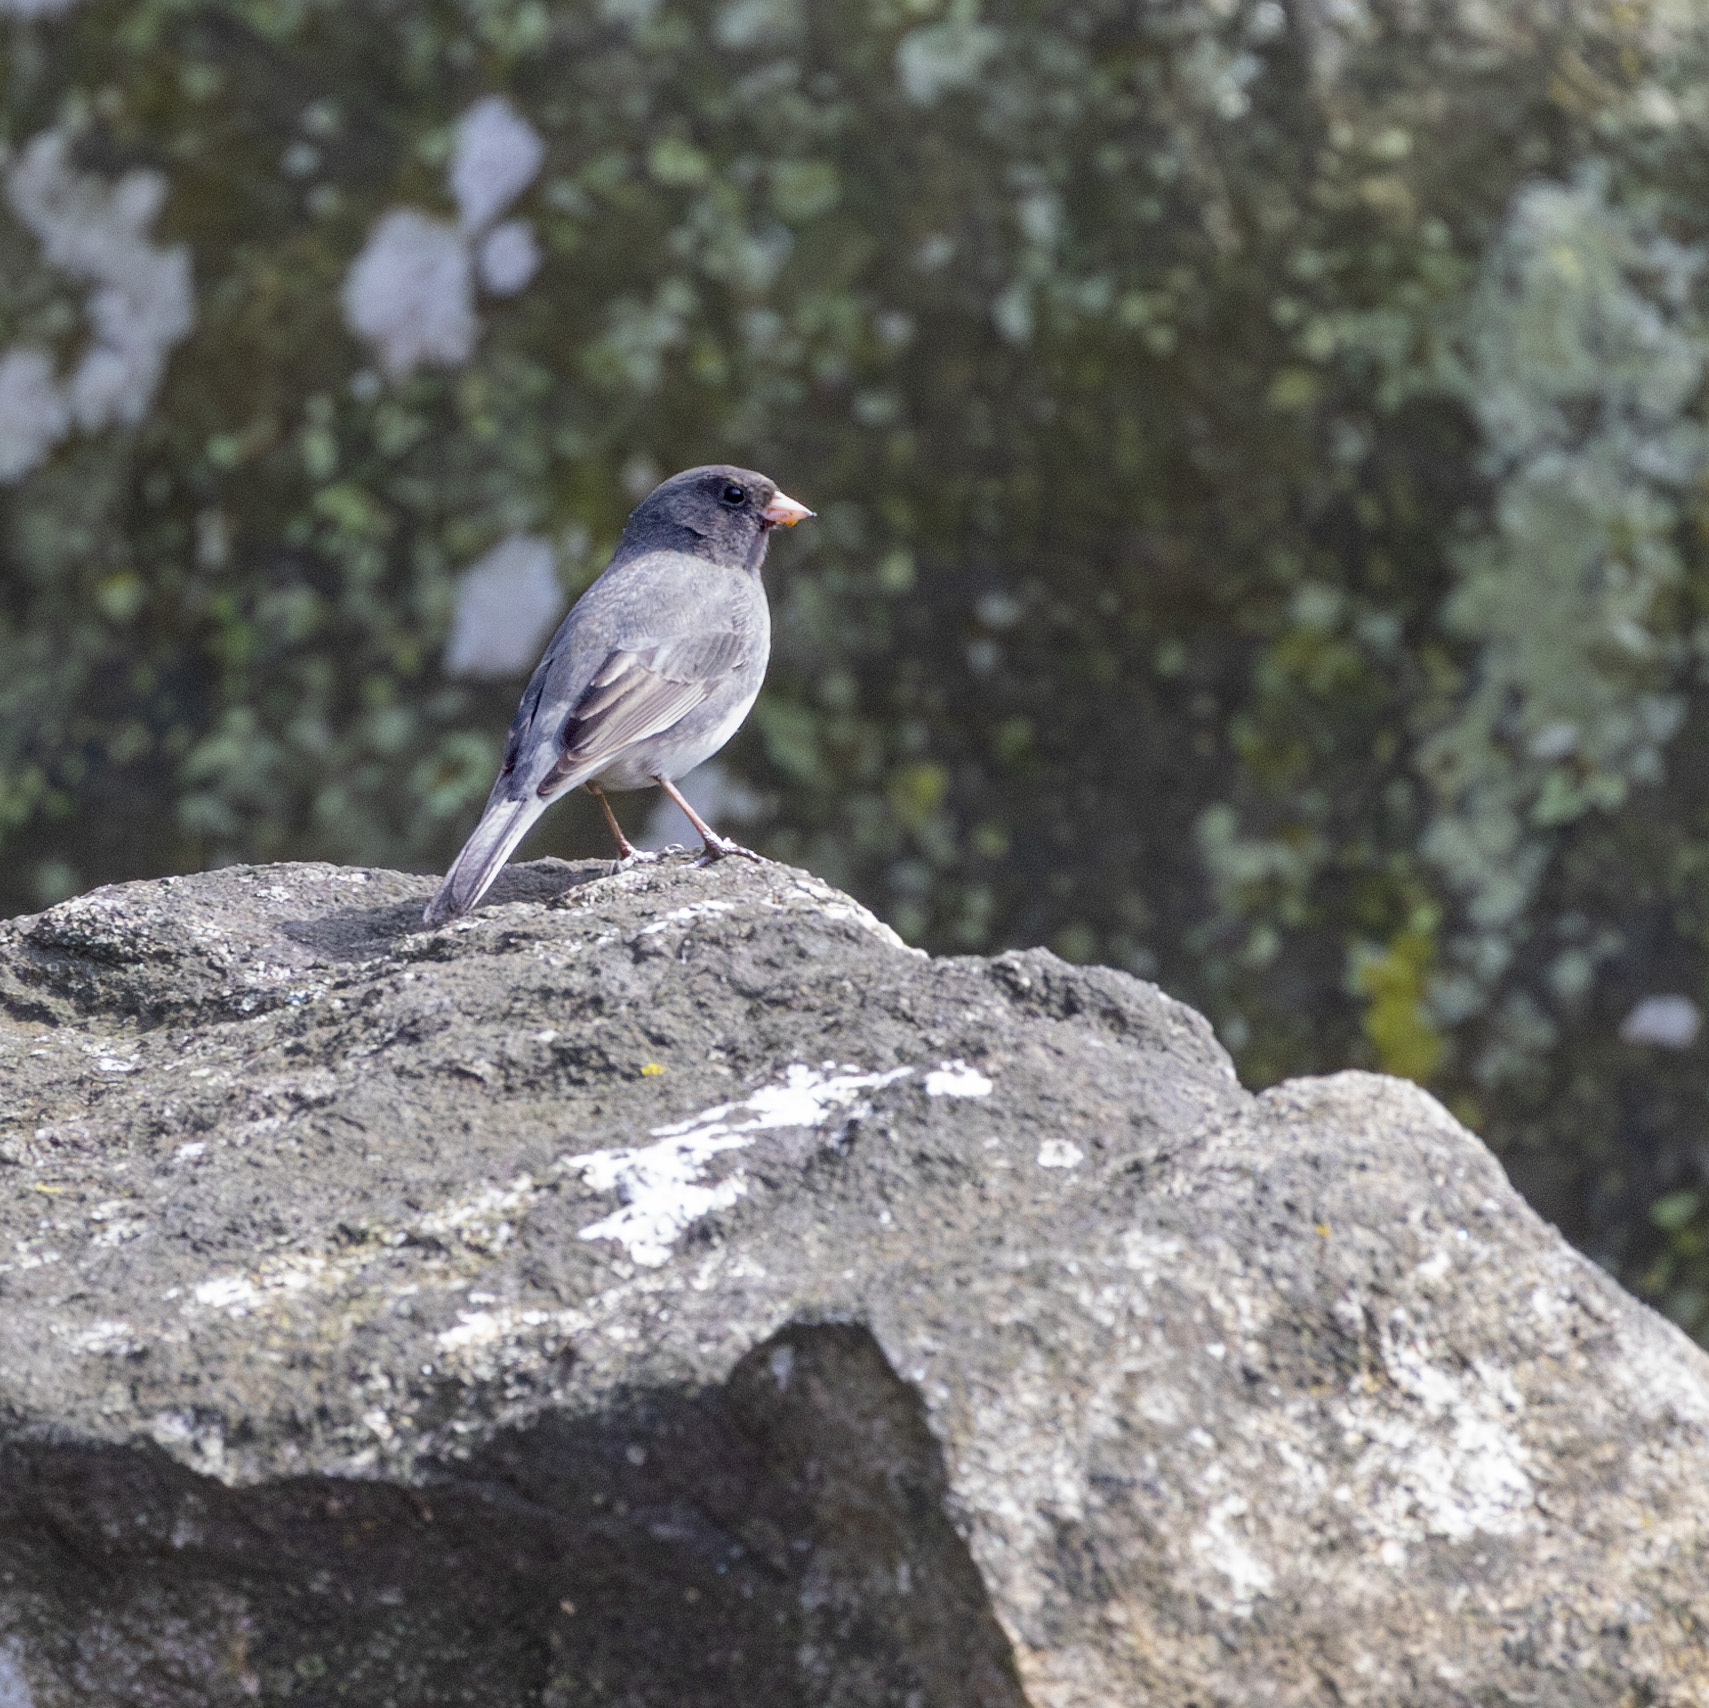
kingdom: Animalia
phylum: Chordata
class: Aves
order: Passeriformes
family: Passerellidae
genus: Junco
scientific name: Junco hyemalis
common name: Dark-eyed junco
